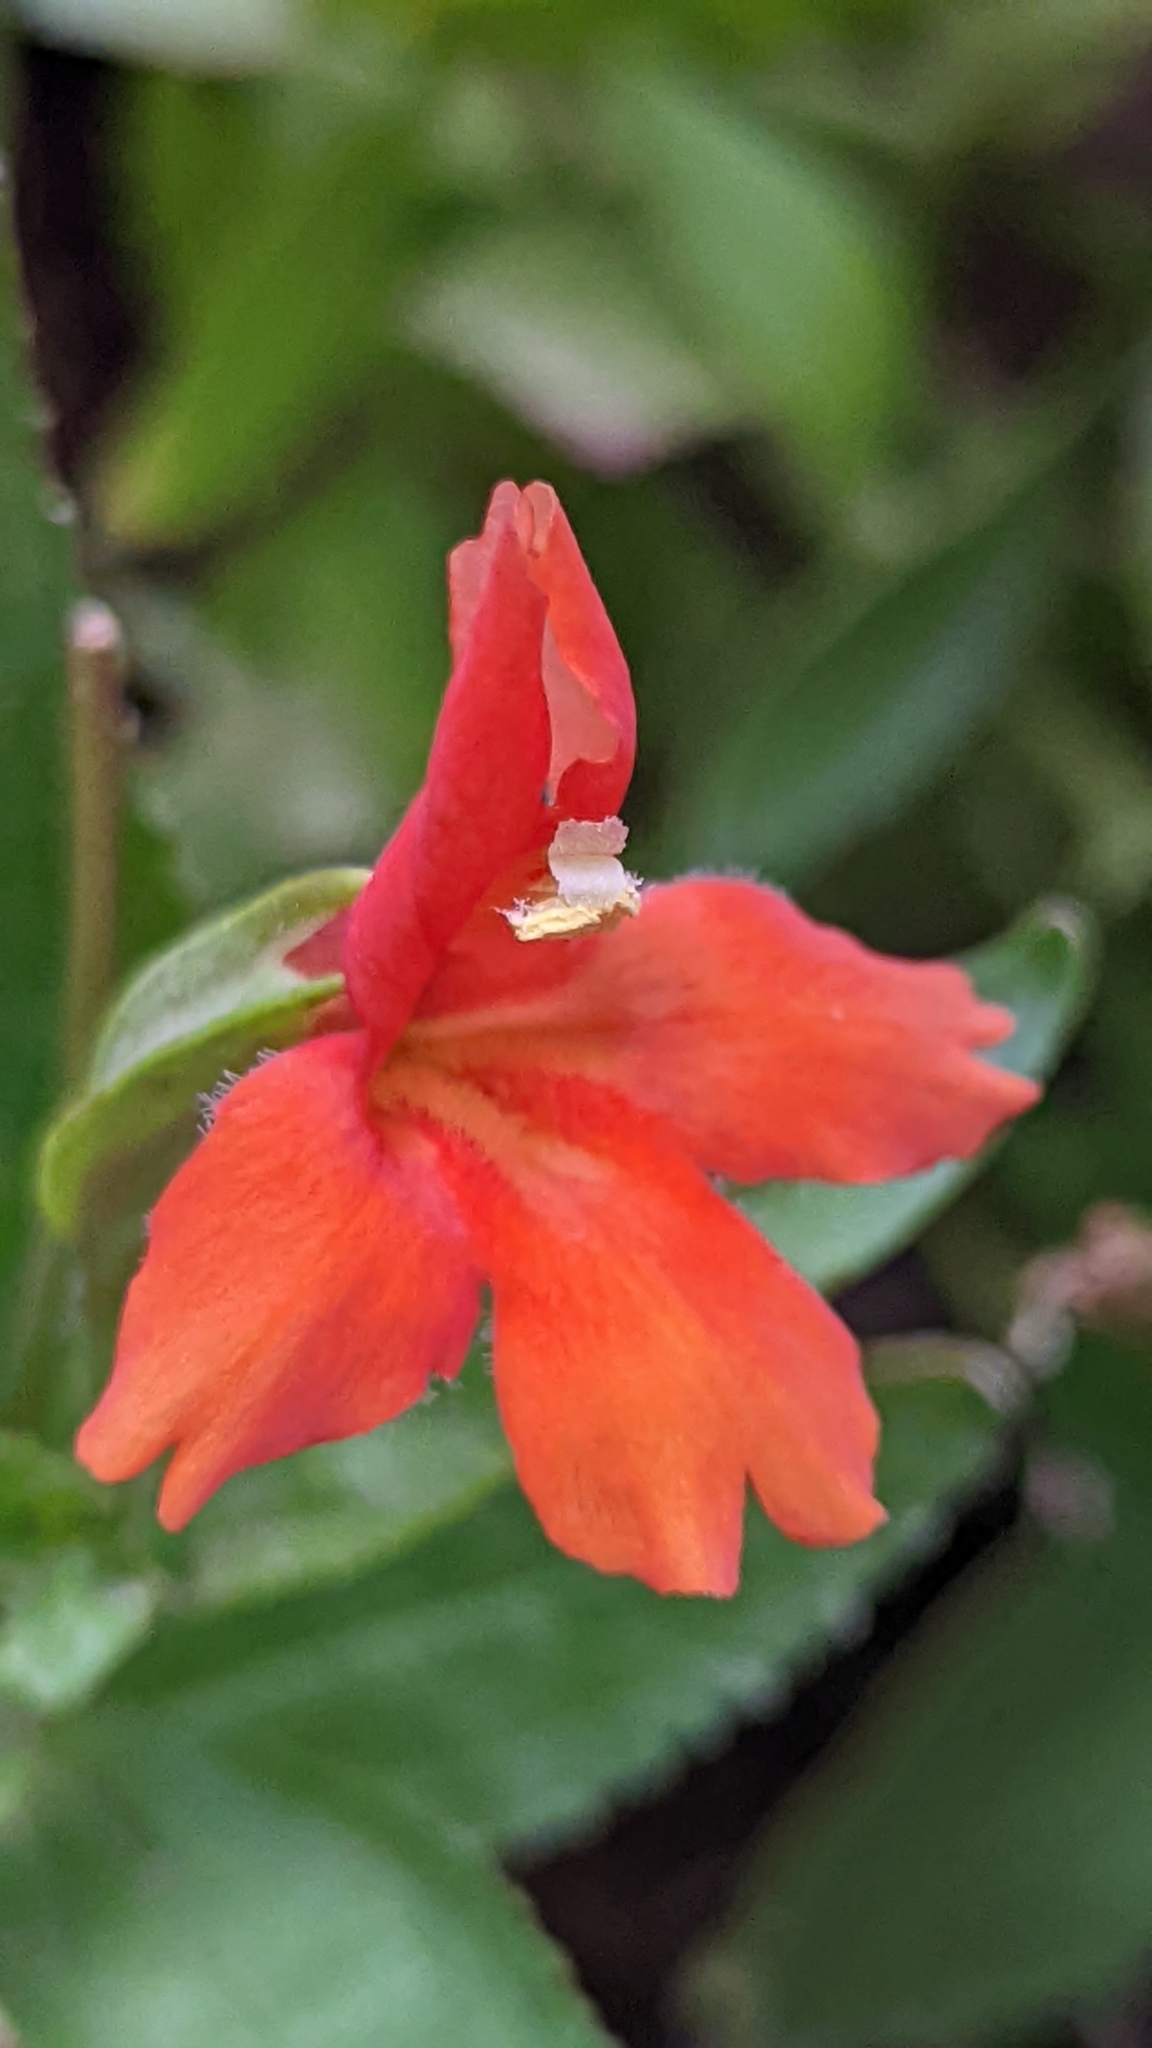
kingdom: Plantae
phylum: Tracheophyta
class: Magnoliopsida
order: Lamiales
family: Phrymaceae
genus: Erythranthe
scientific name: Erythranthe verbenacea
